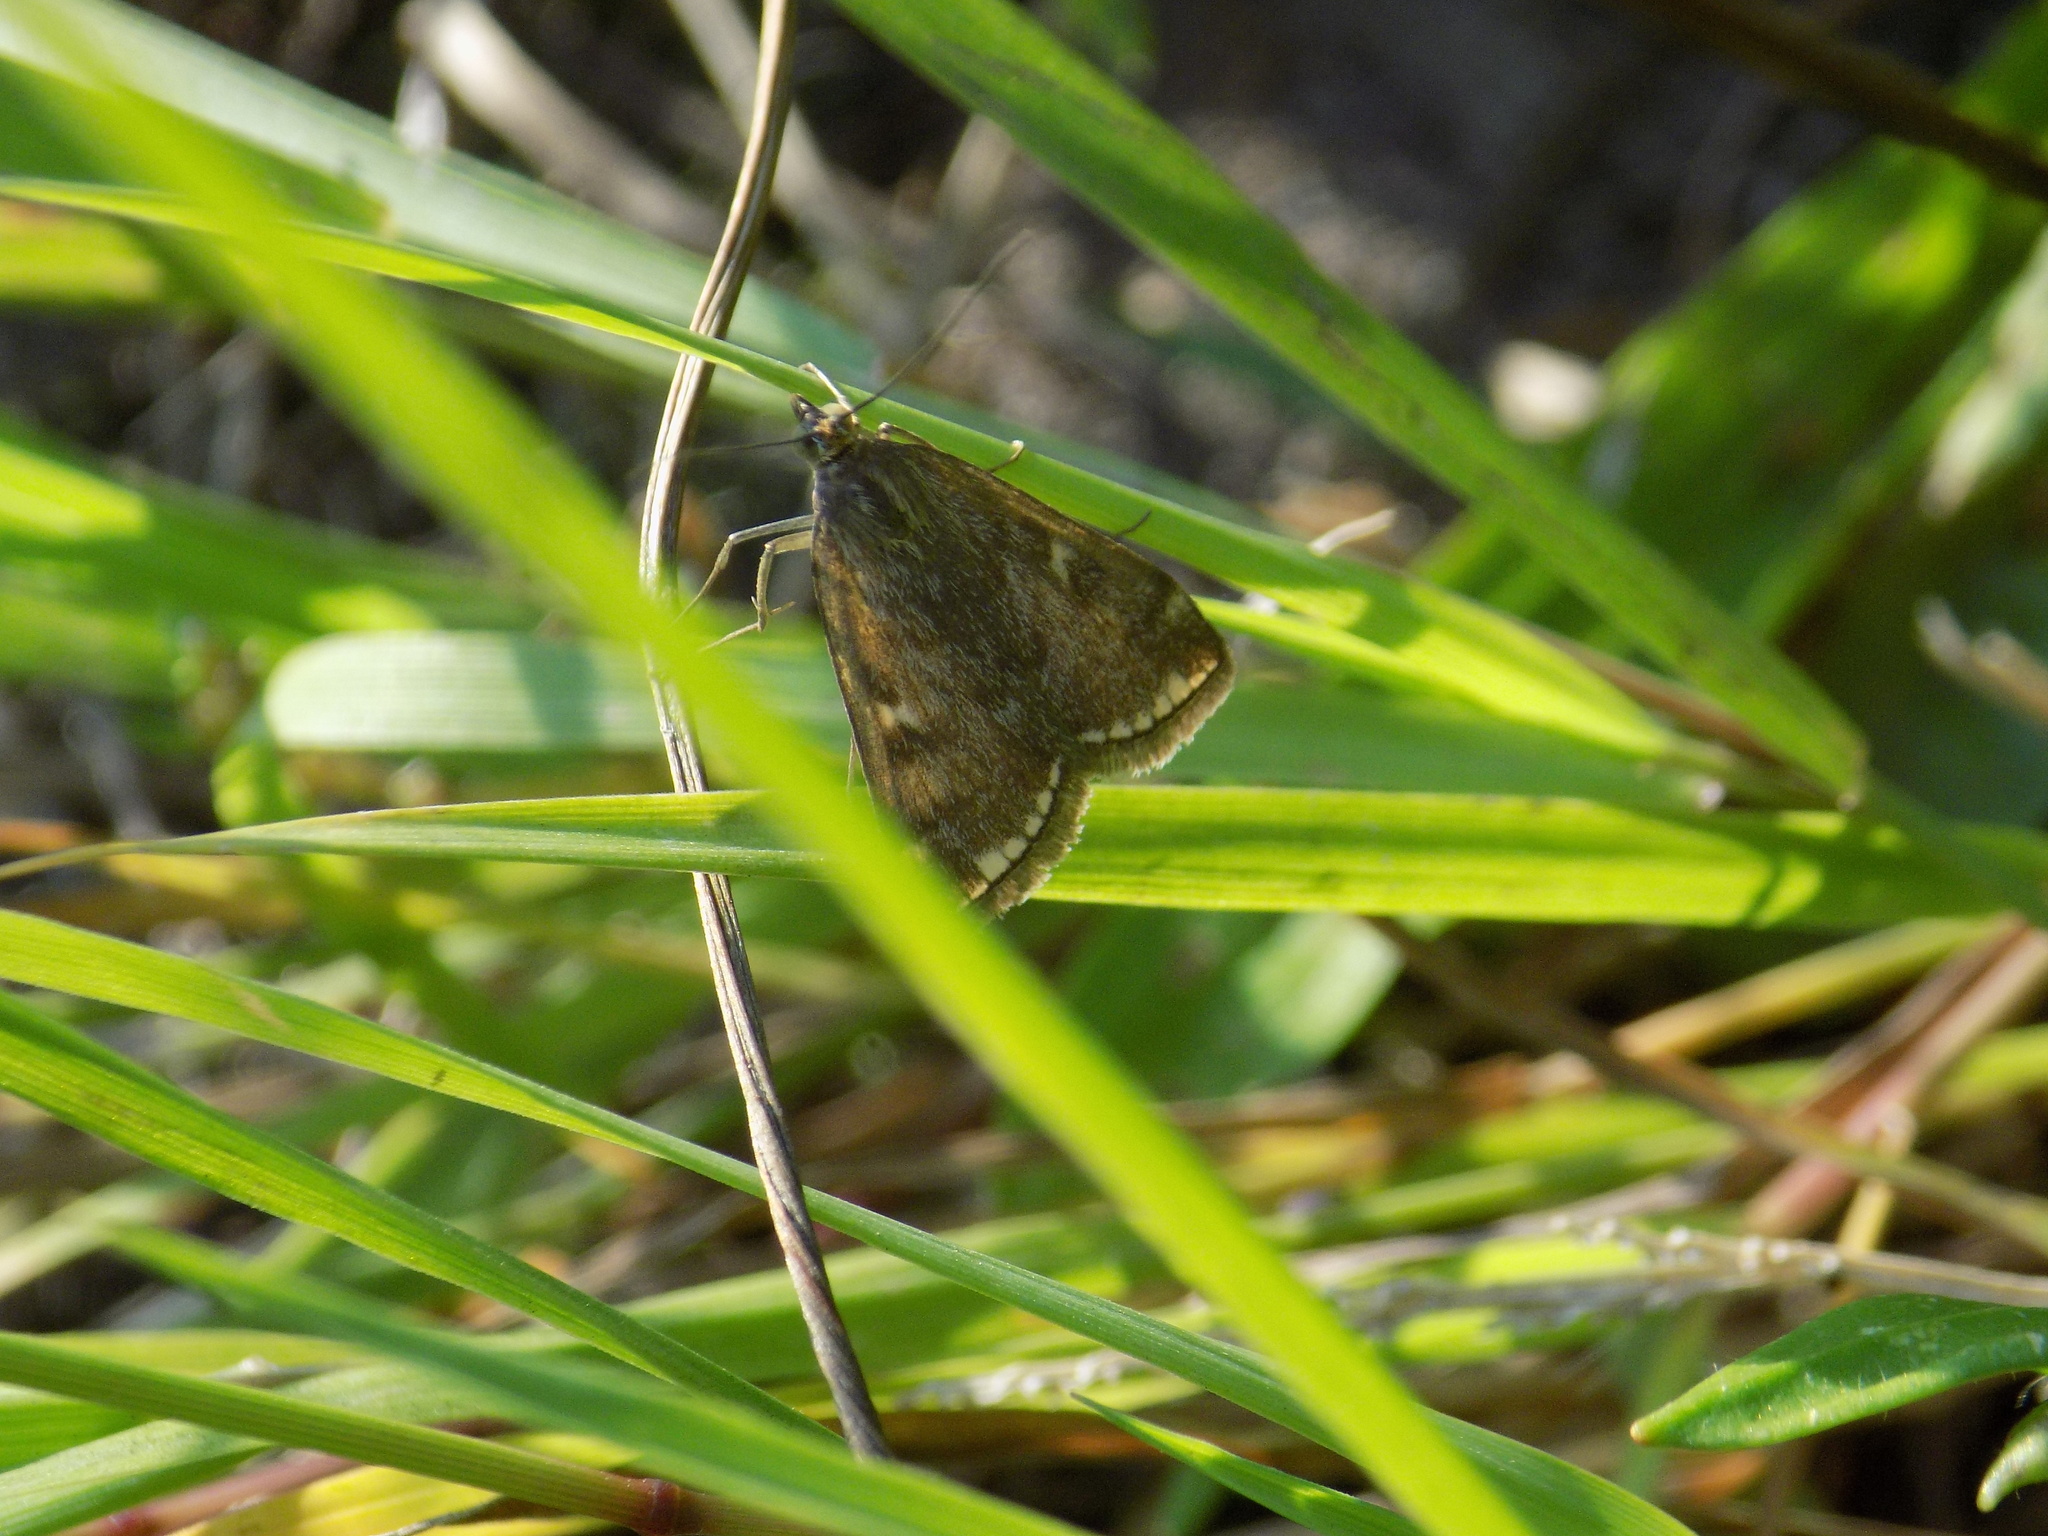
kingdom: Animalia
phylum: Arthropoda
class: Insecta
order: Lepidoptera
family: Crambidae
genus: Loxostege
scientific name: Loxostege sticticalis
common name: Crambid moth
